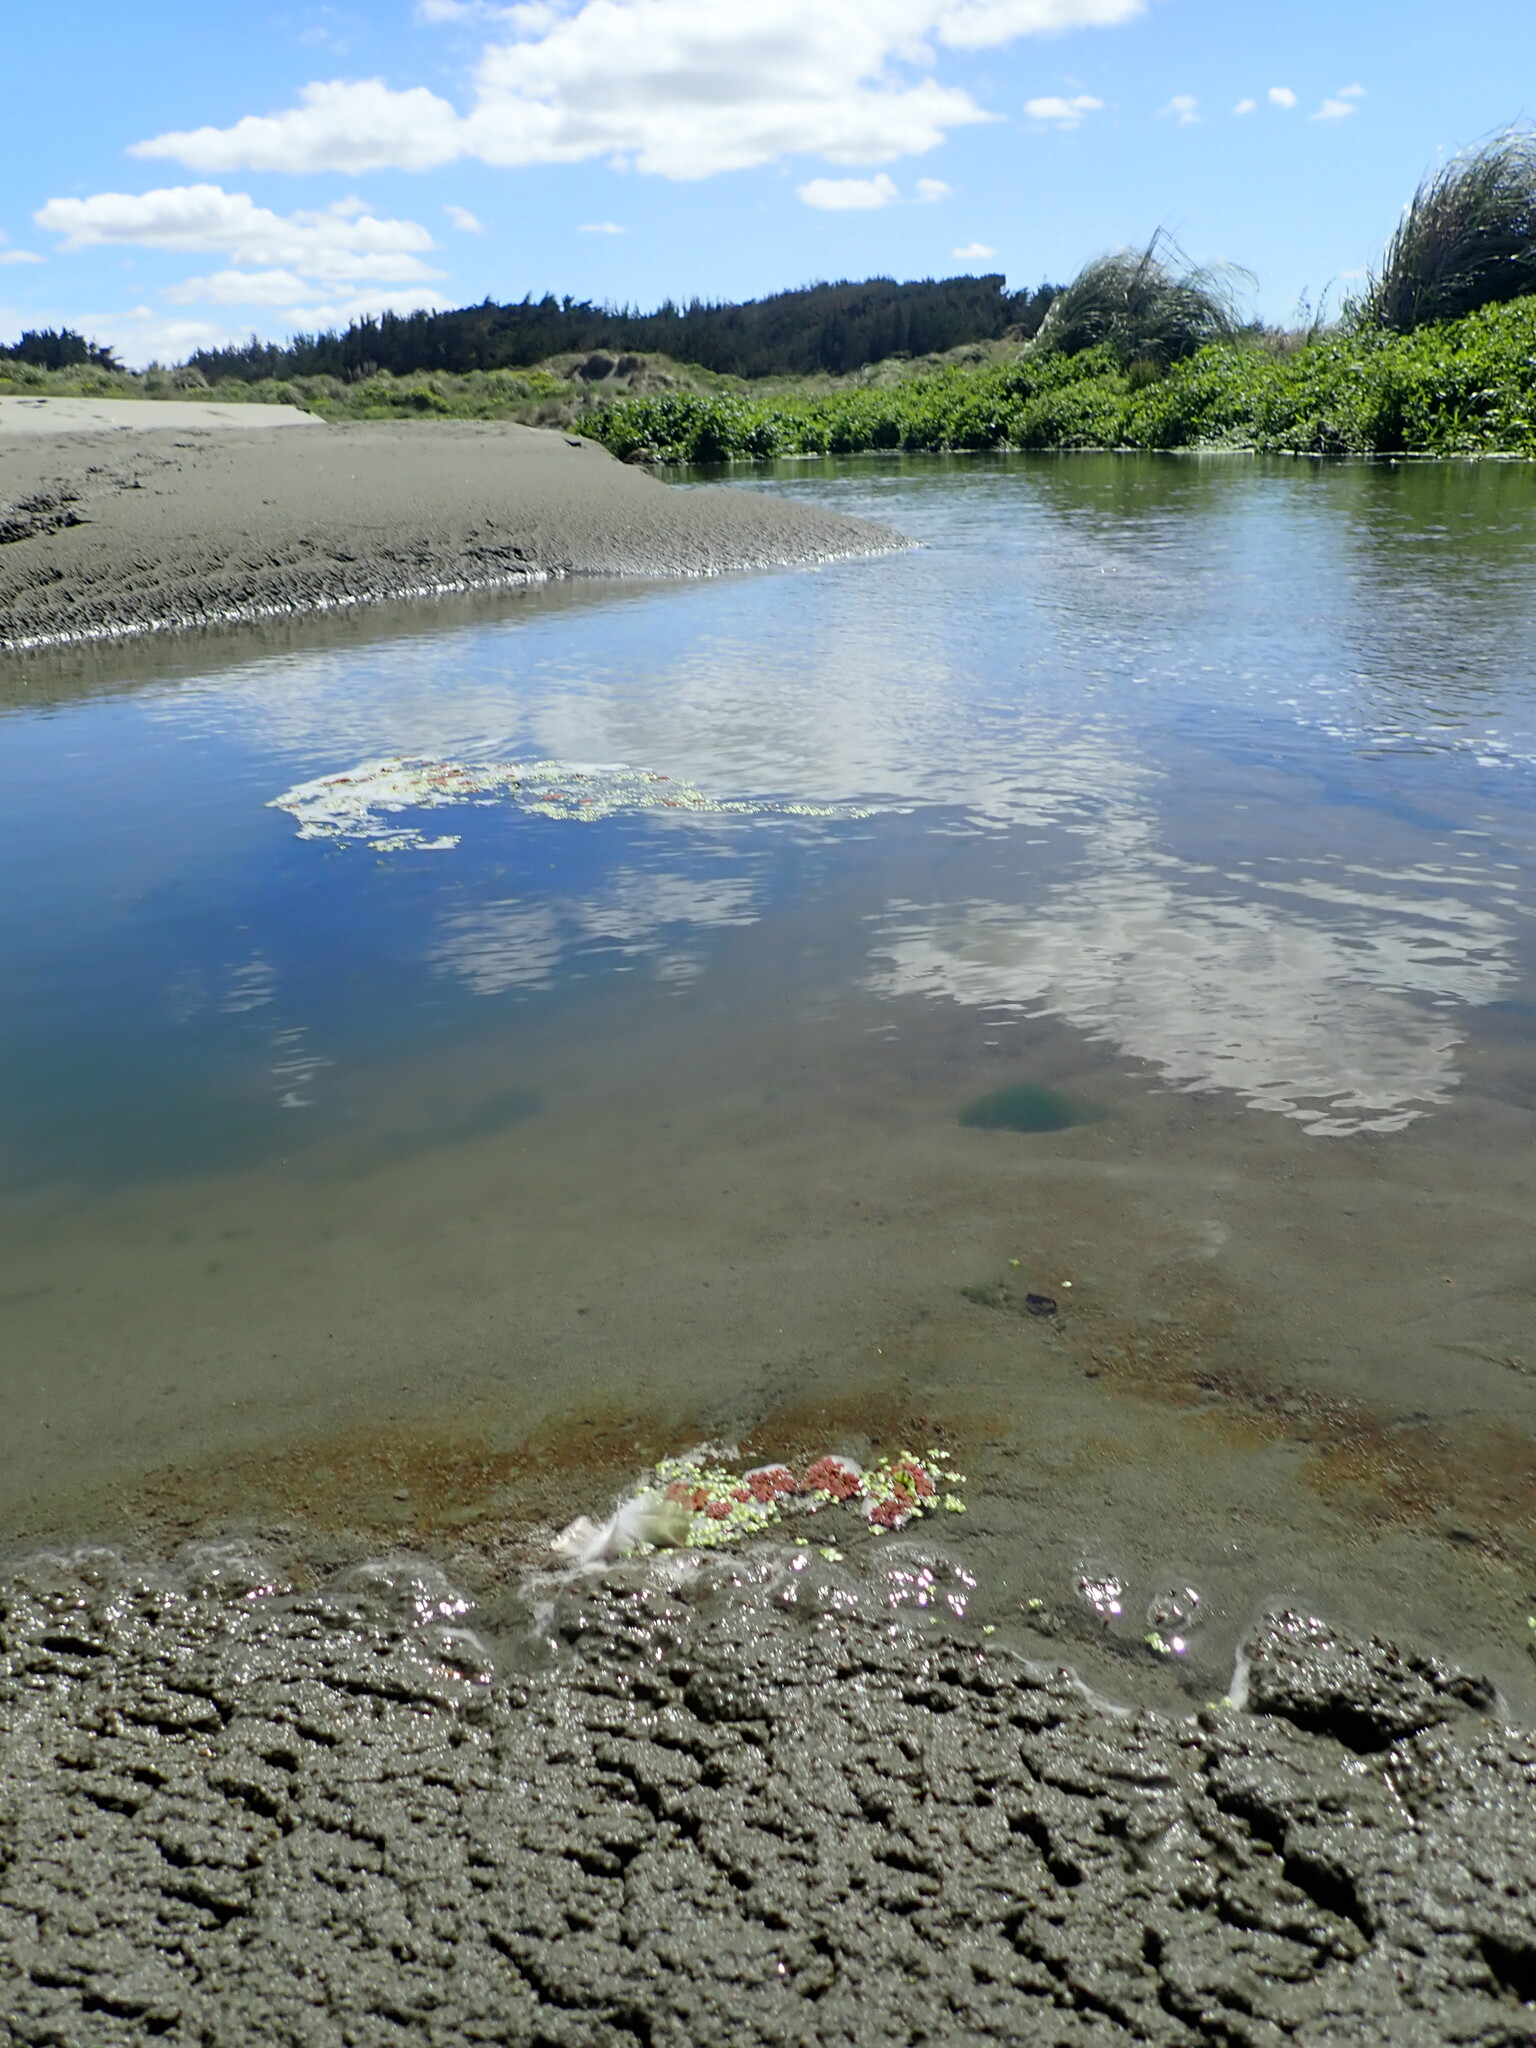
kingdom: Plantae
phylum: Tracheophyta
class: Polypodiopsida
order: Salviniales
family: Salviniaceae
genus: Azolla
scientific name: Azolla rubra
